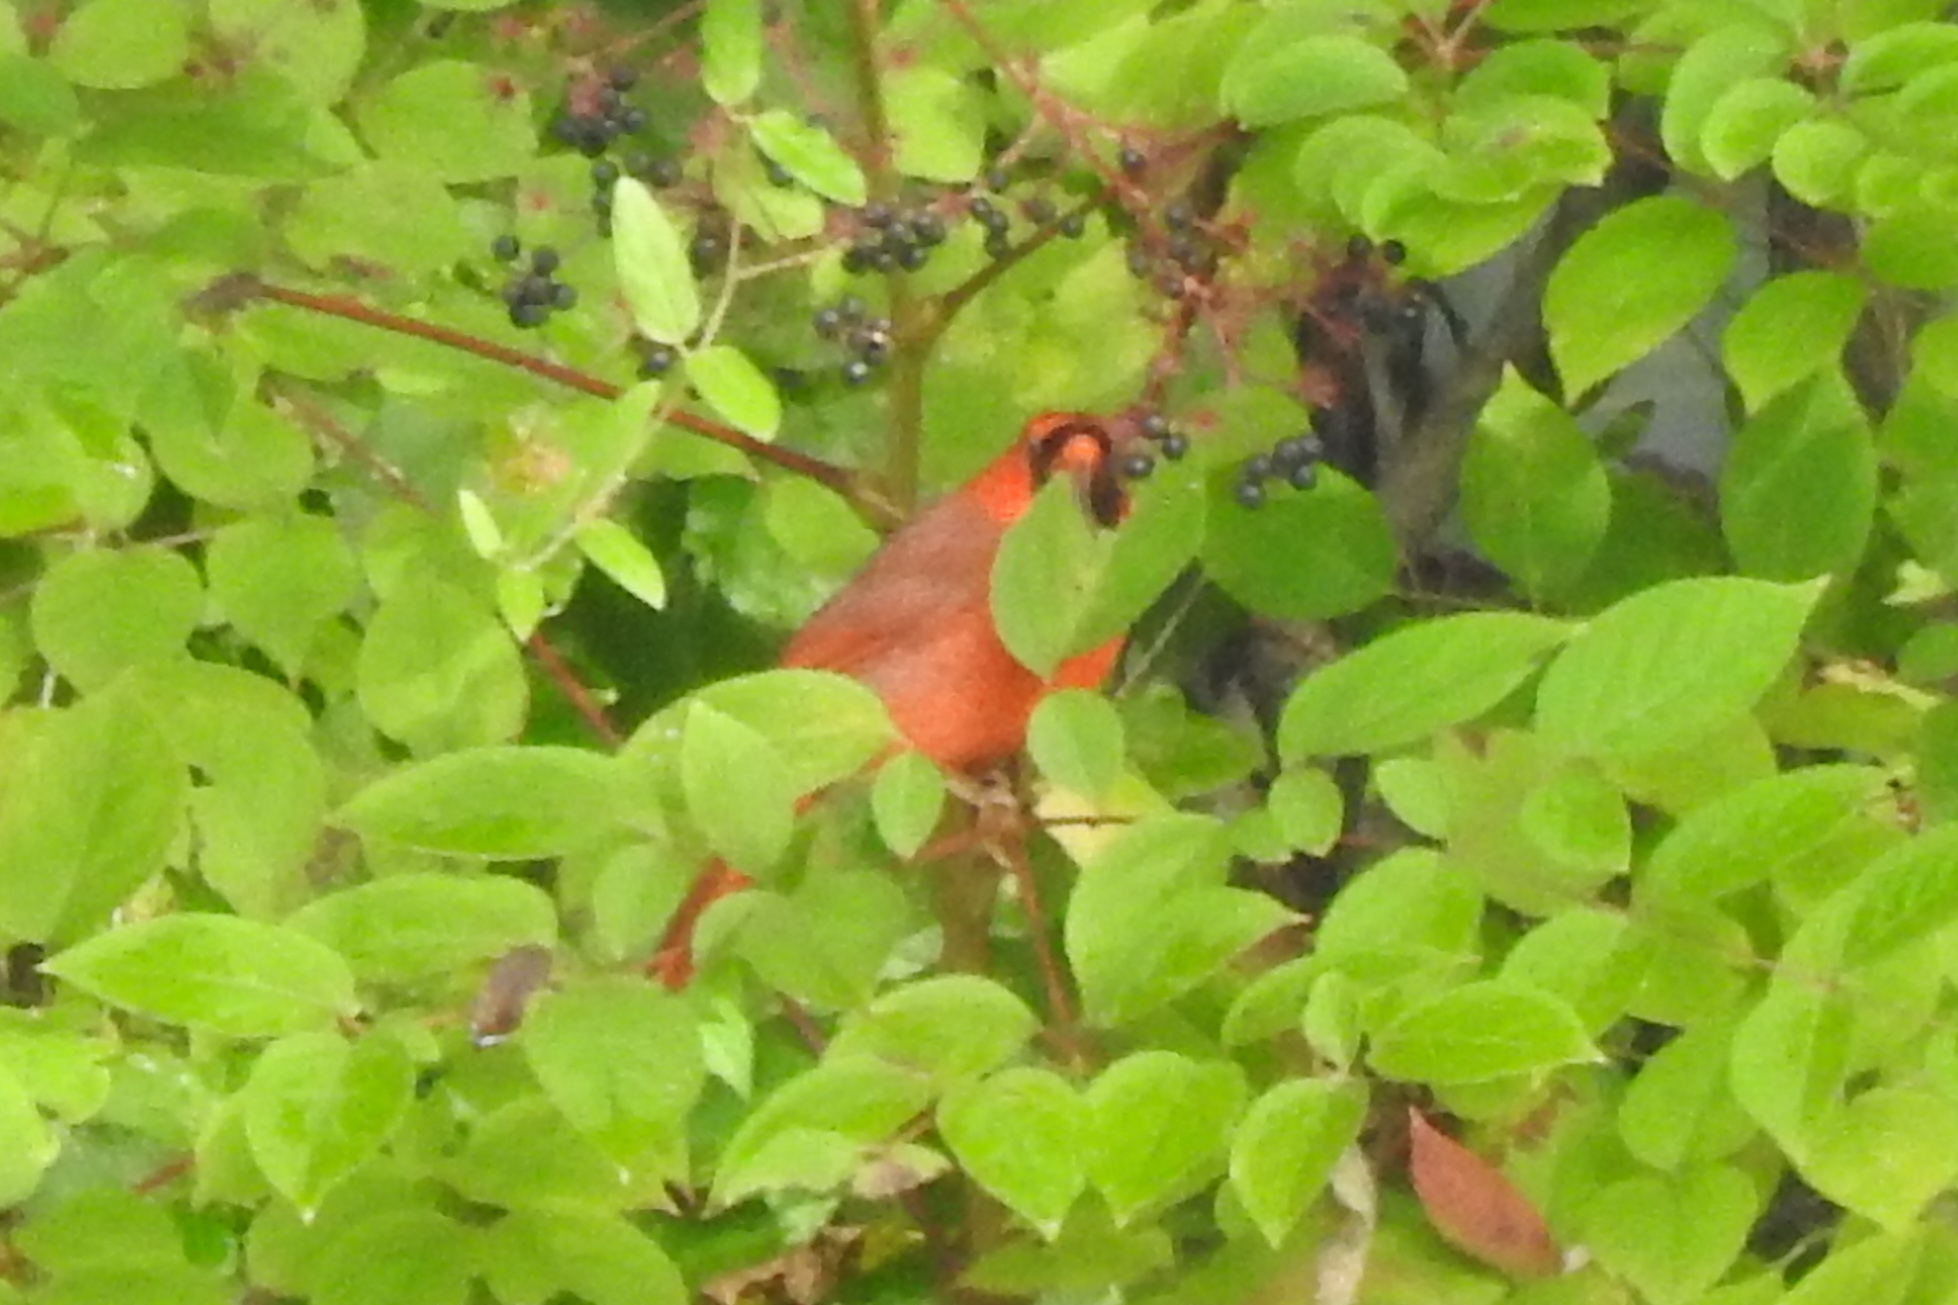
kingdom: Animalia
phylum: Chordata
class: Aves
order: Passeriformes
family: Cardinalidae
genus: Cardinalis
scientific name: Cardinalis cardinalis
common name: Northern cardinal
